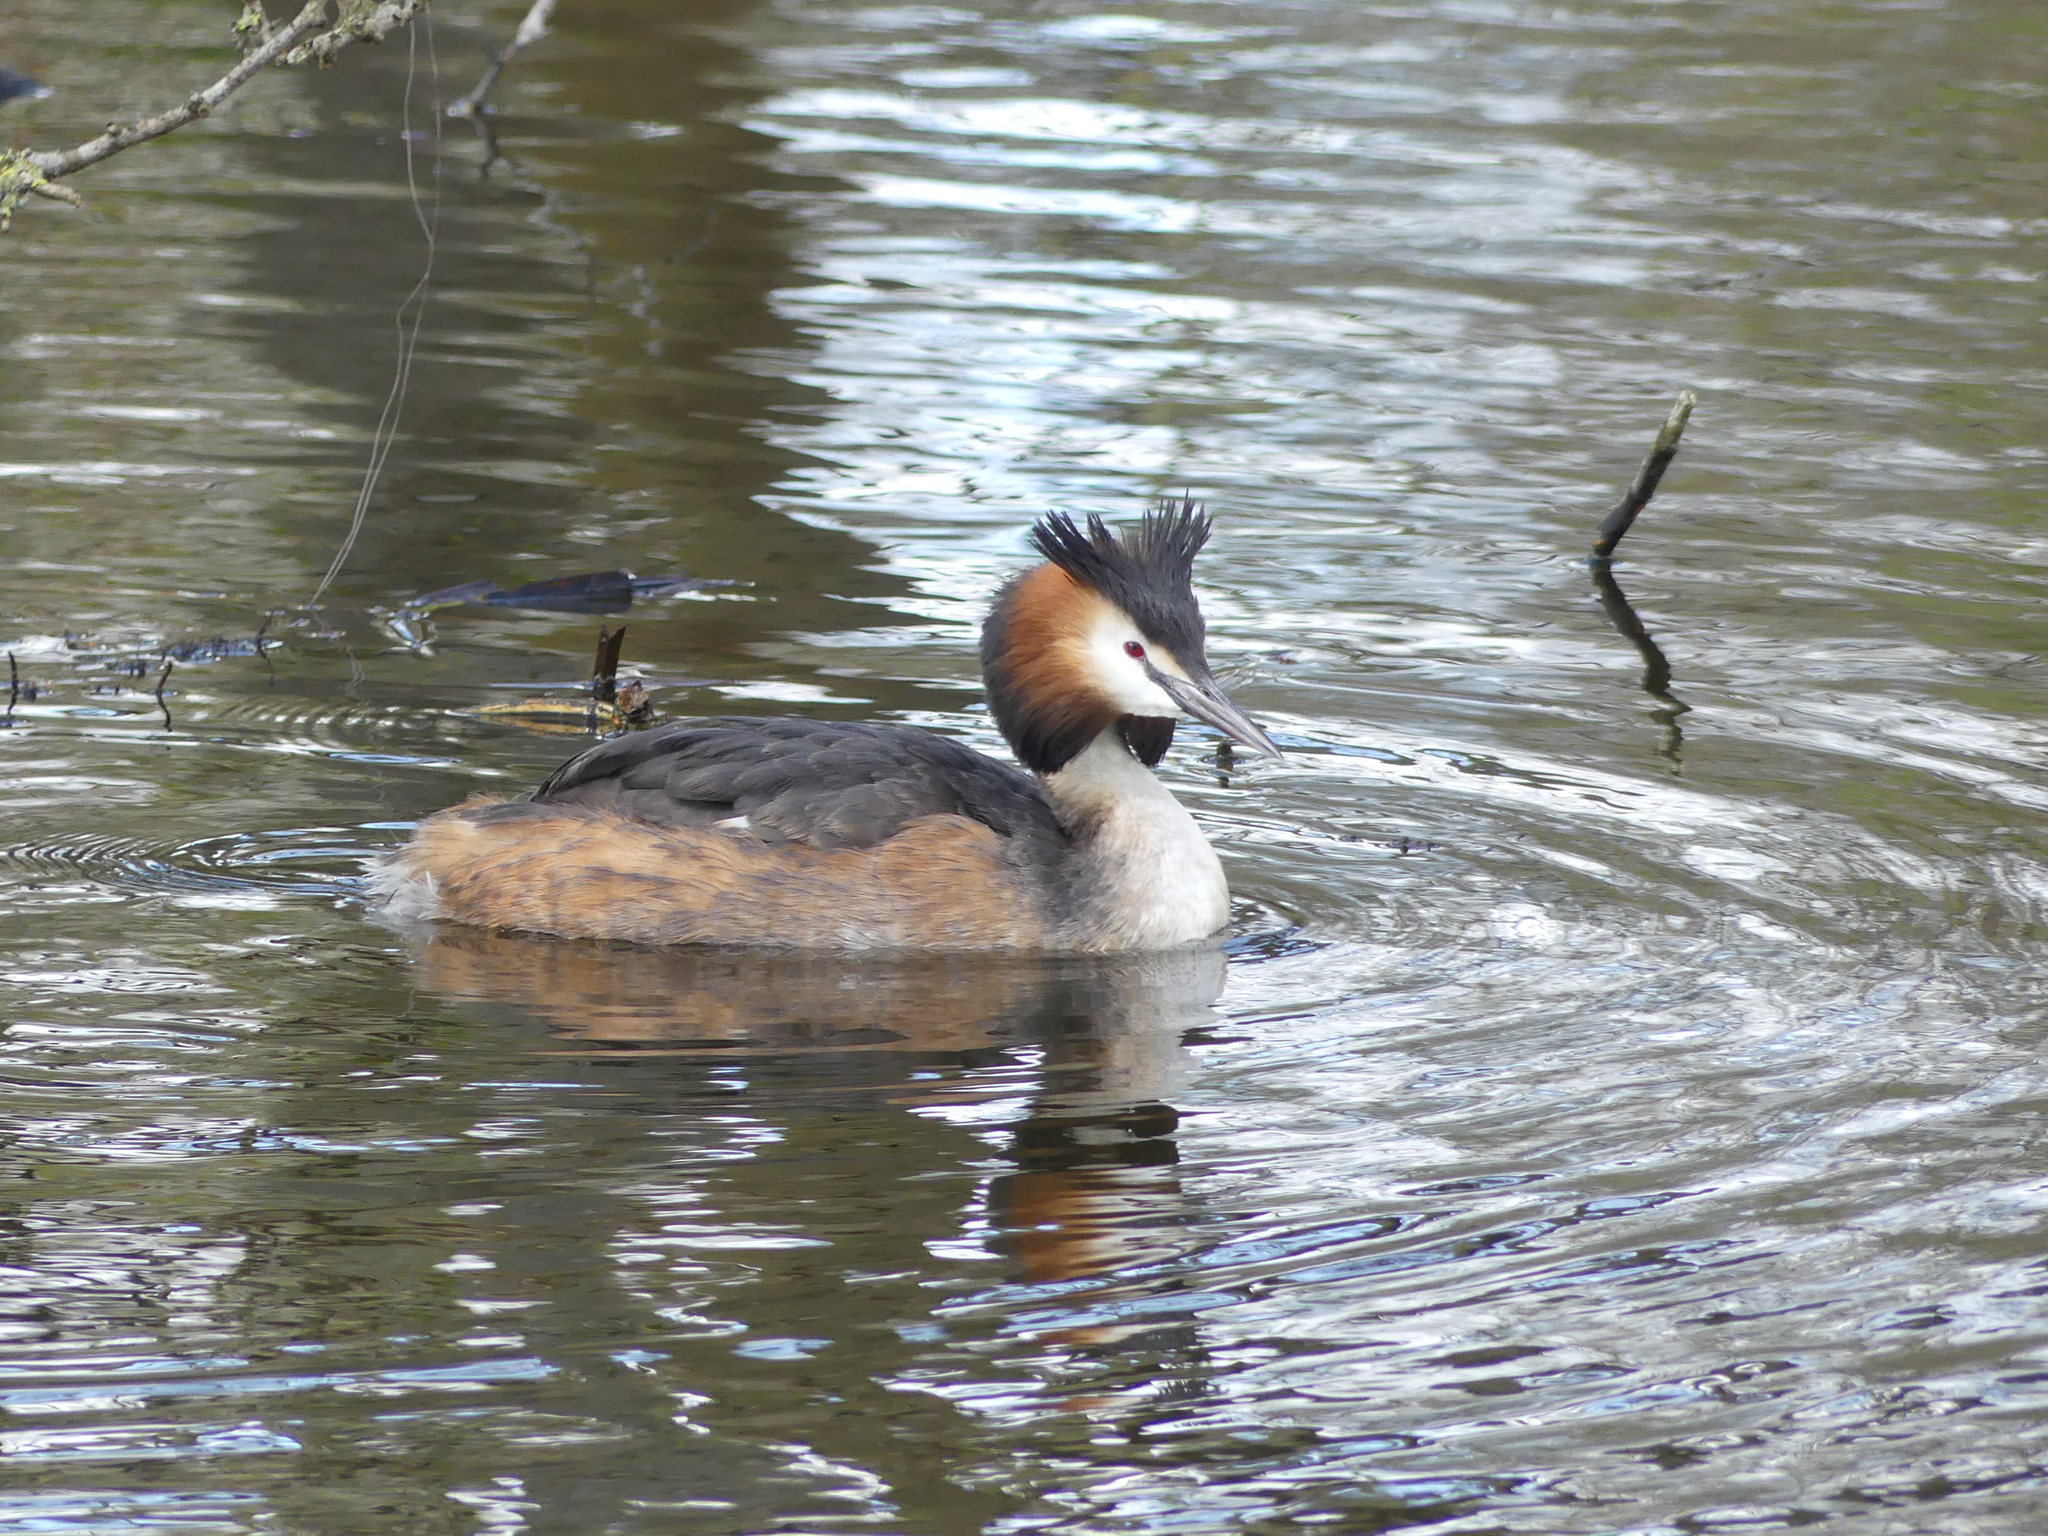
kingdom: Animalia
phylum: Chordata
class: Aves
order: Podicipediformes
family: Podicipedidae
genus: Podiceps
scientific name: Podiceps cristatus
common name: Great crested grebe
